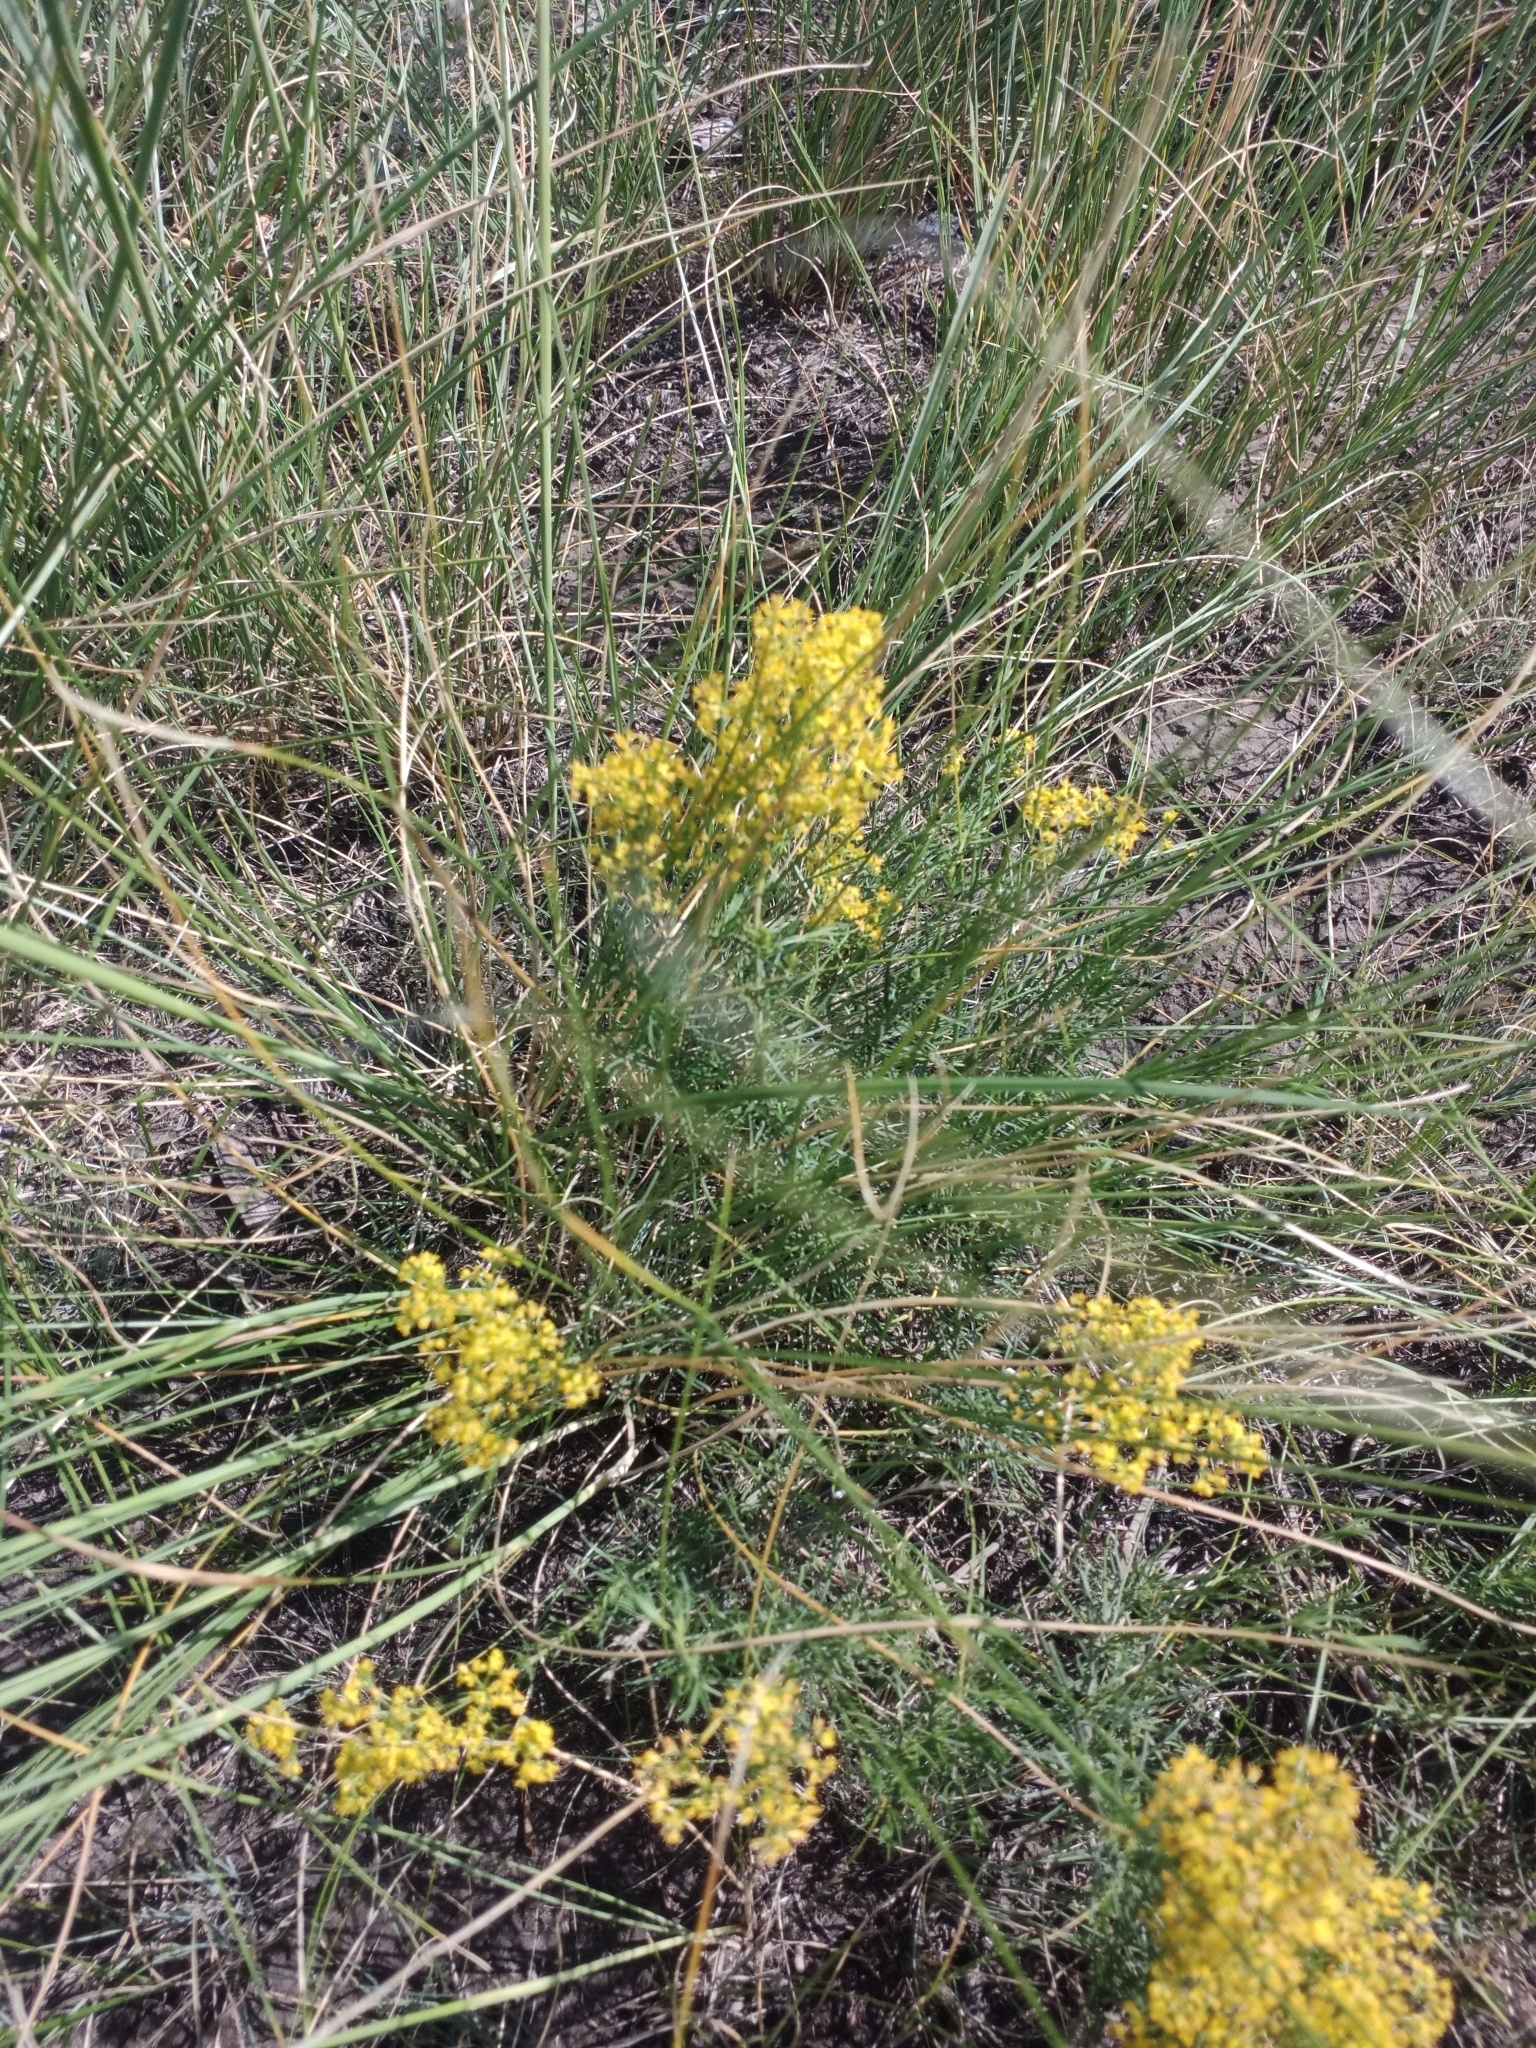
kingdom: Plantae
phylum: Tracheophyta
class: Magnoliopsida
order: Gentianales
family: Rubiaceae
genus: Galium
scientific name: Galium verum
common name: Lady's bedstraw
